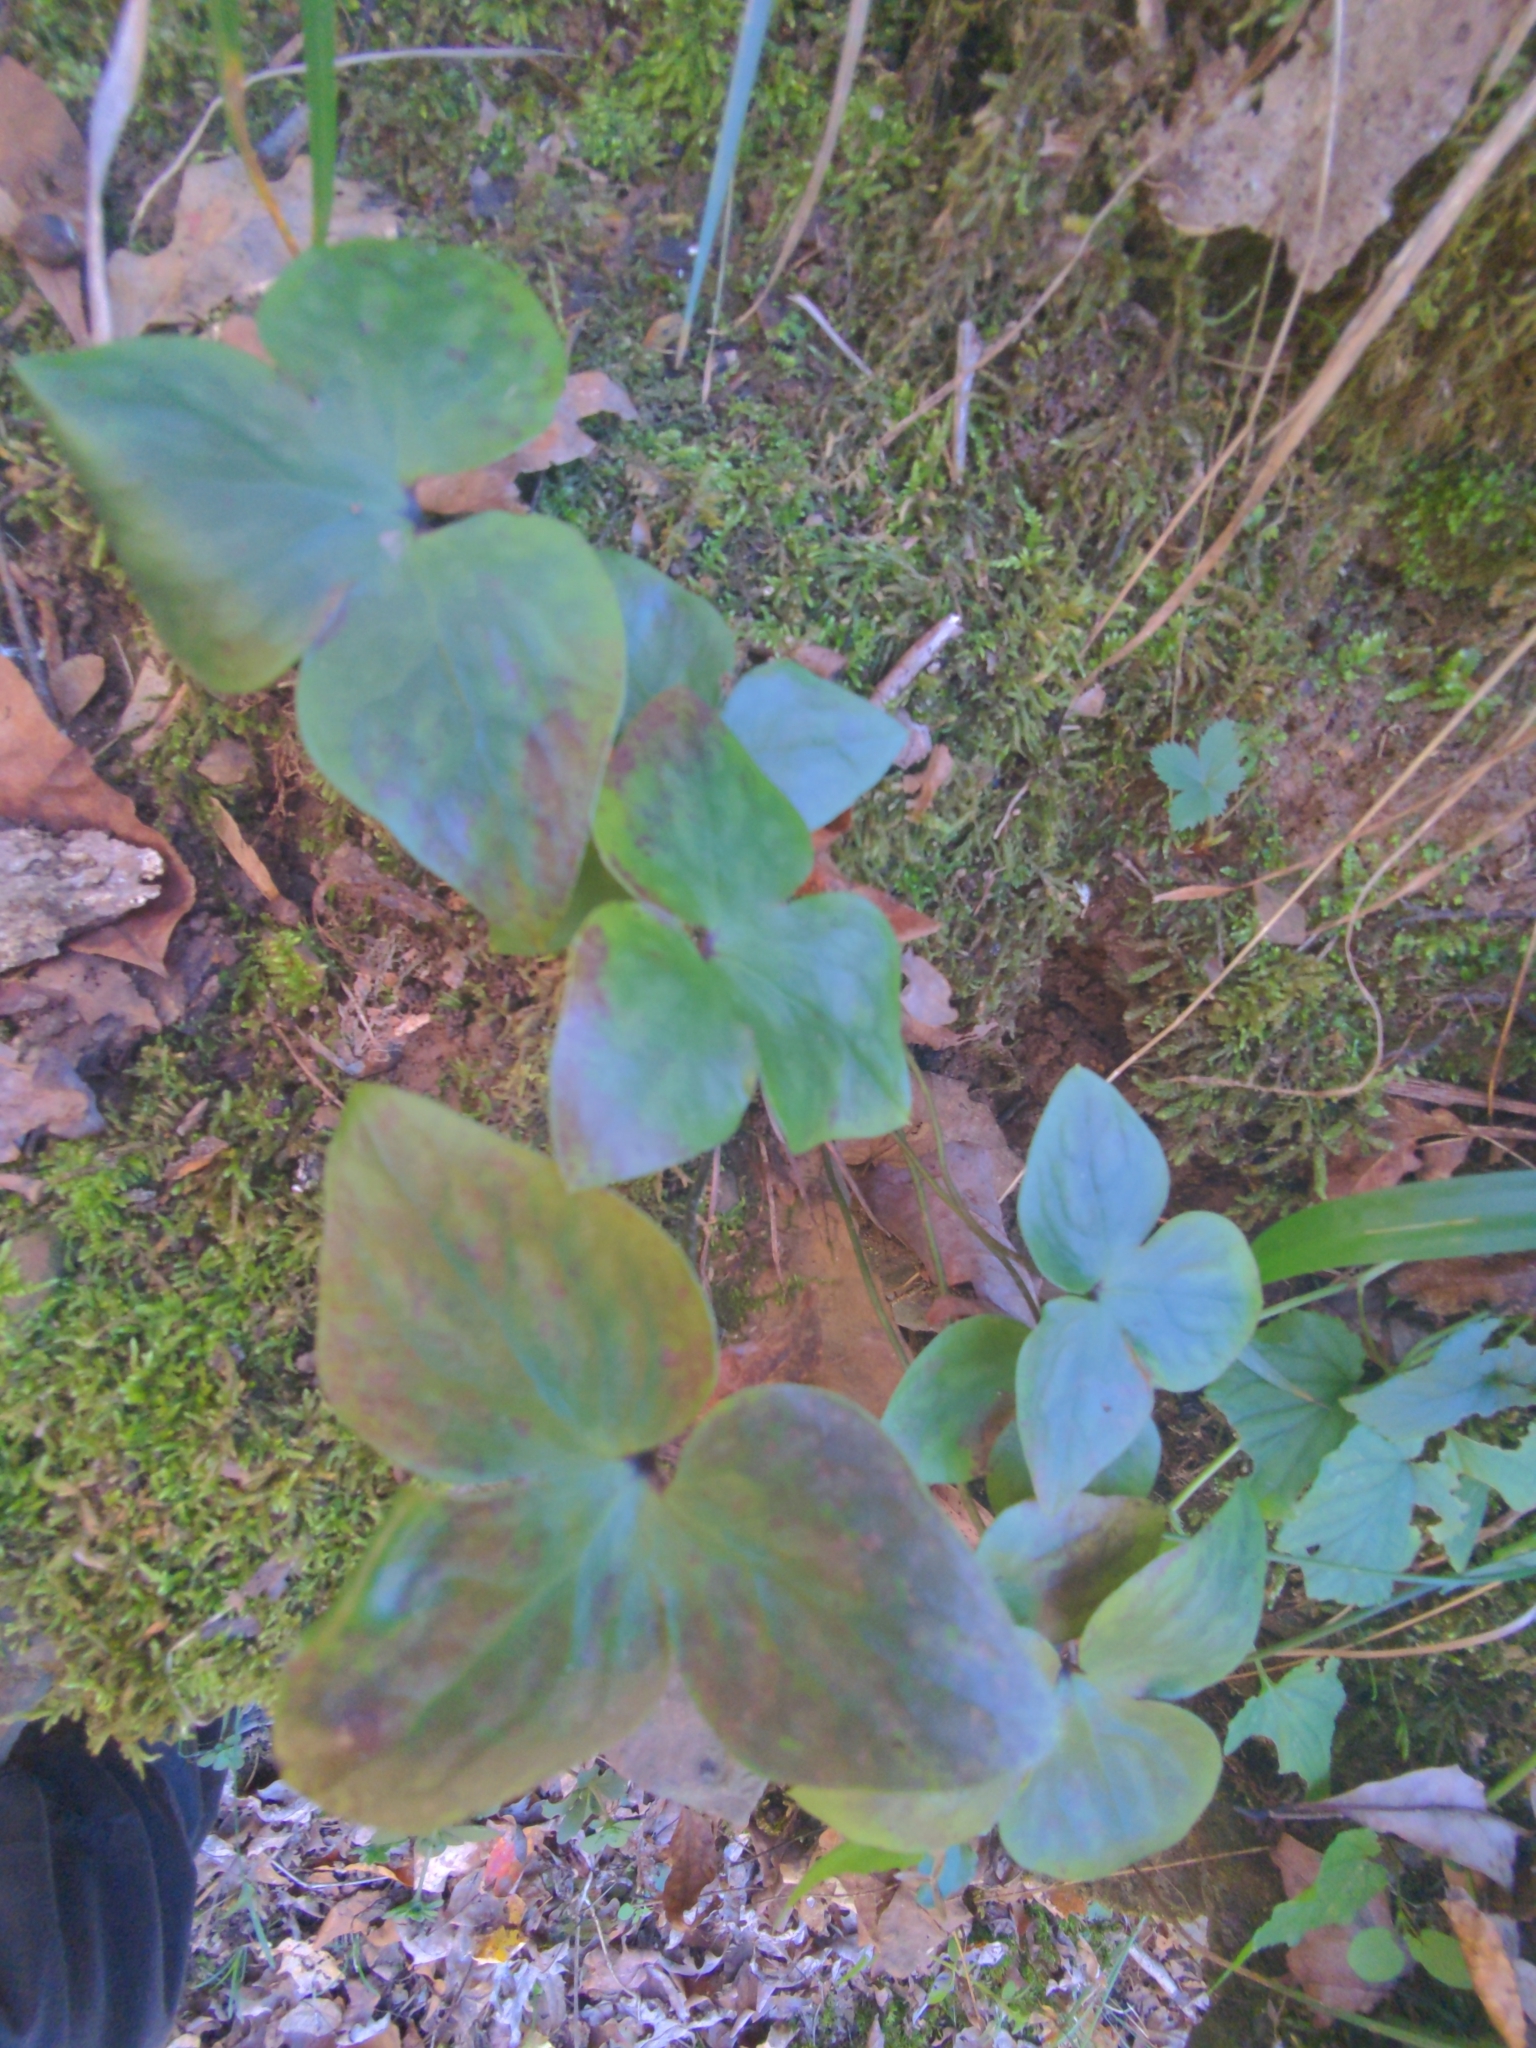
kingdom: Plantae
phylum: Tracheophyta
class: Magnoliopsida
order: Ranunculales
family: Ranunculaceae
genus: Hepatica
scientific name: Hepatica acutiloba
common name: Sharp-lobed hepatica
